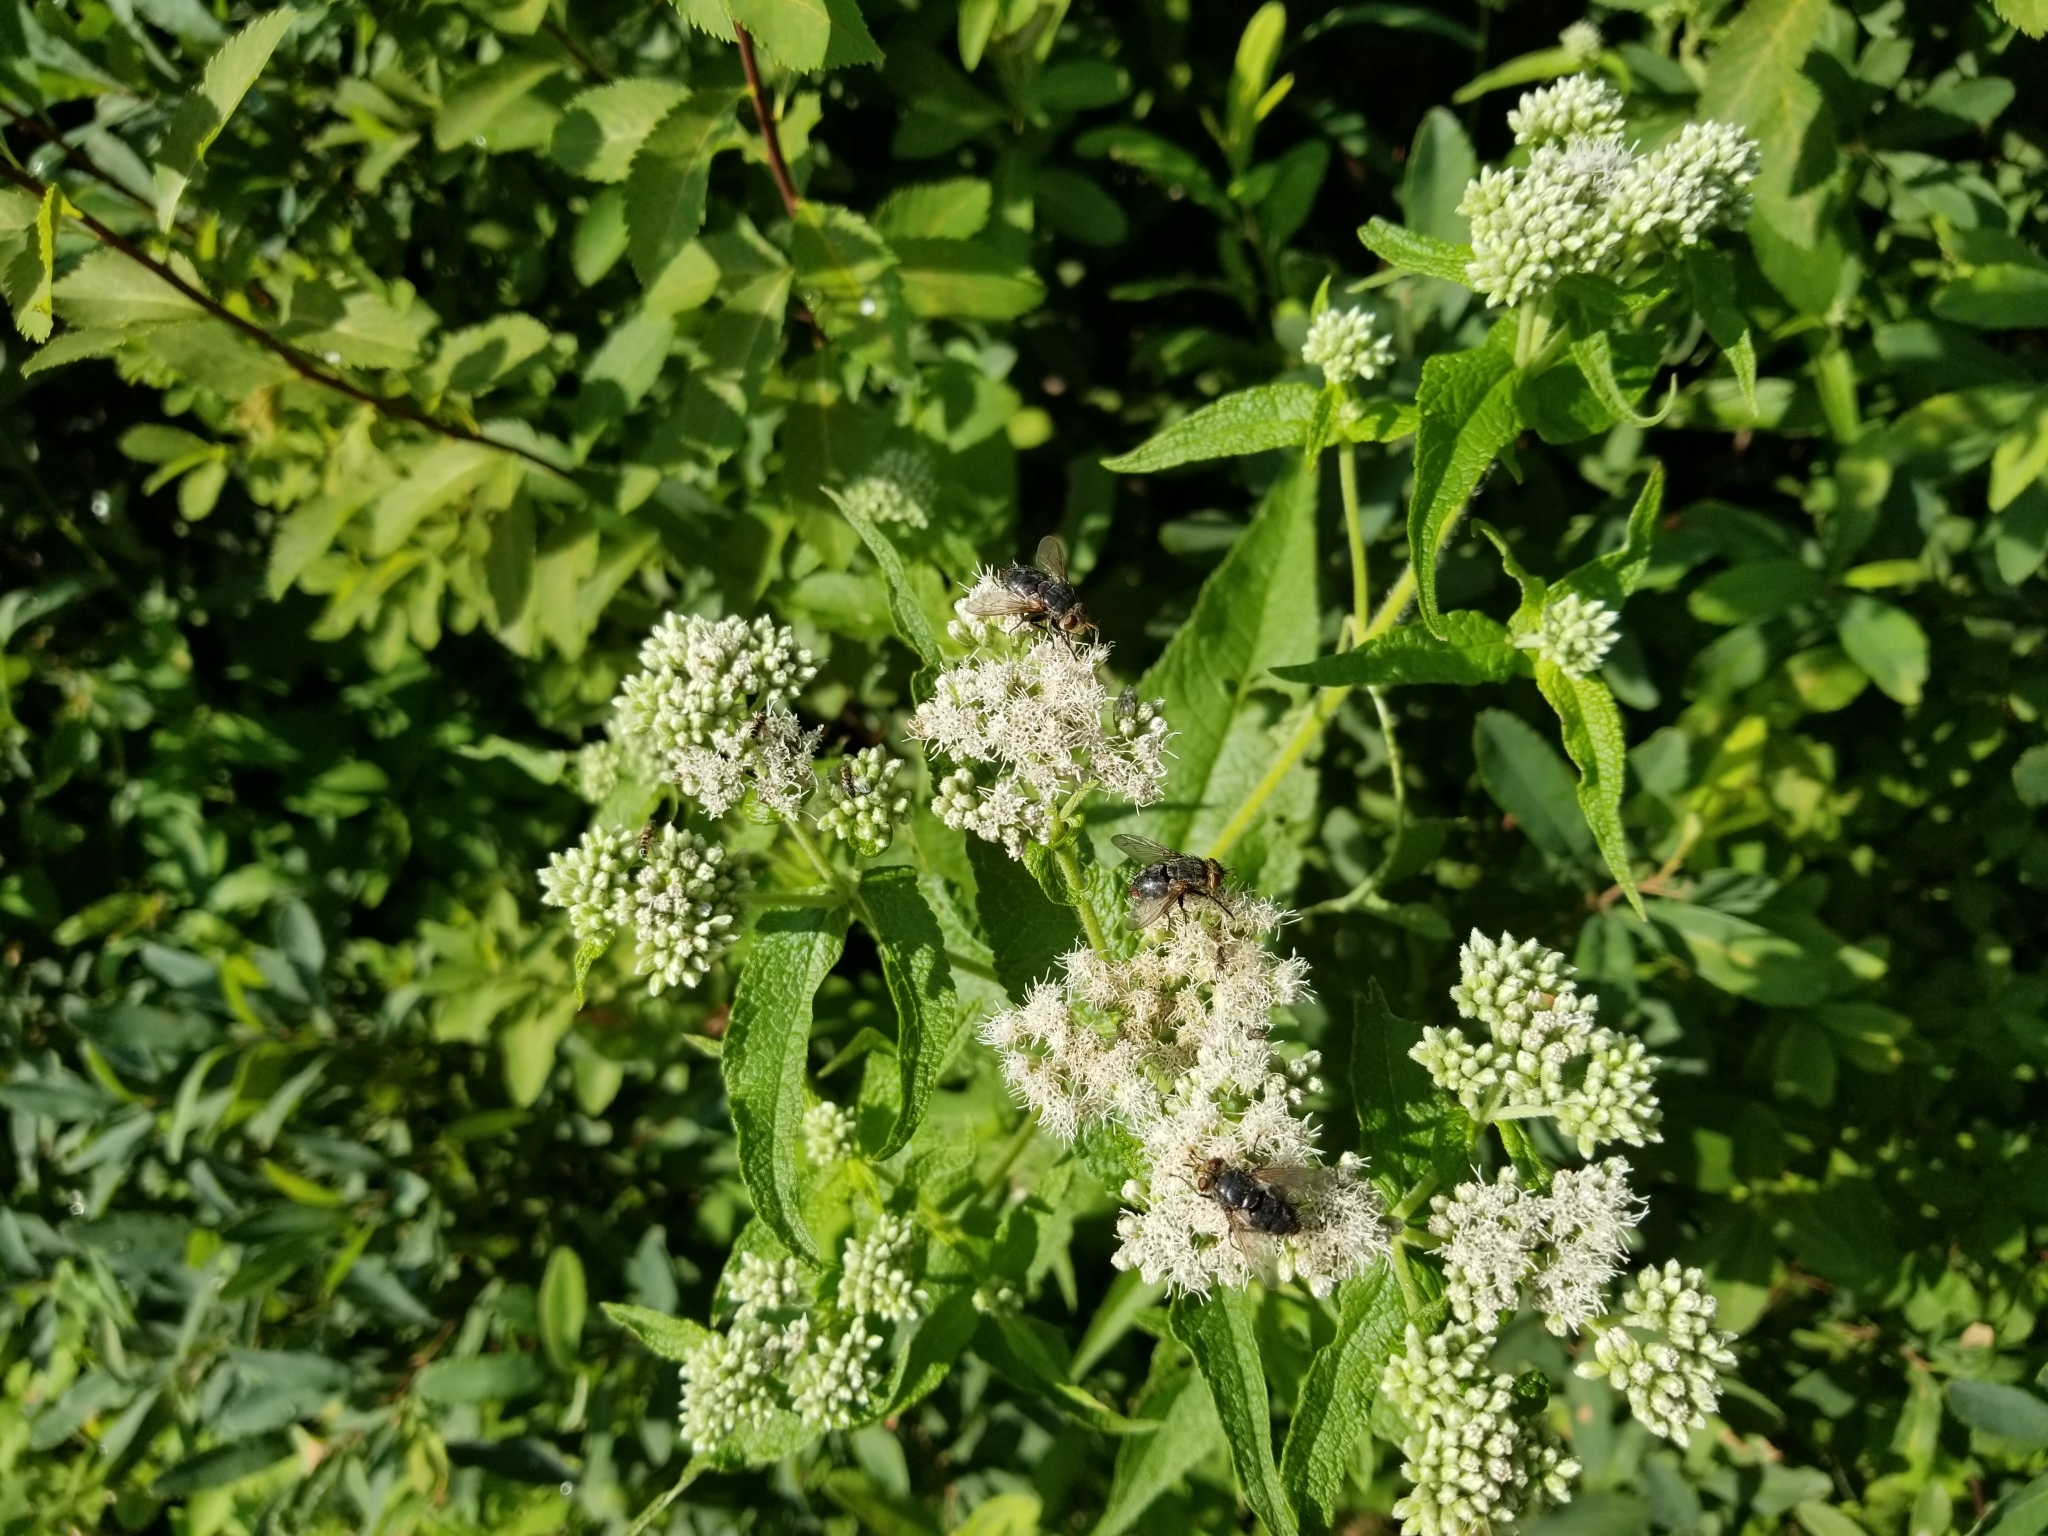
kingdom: Plantae
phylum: Tracheophyta
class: Magnoliopsida
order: Asterales
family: Asteraceae
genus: Eupatorium
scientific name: Eupatorium perfoliatum
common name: Boneset
